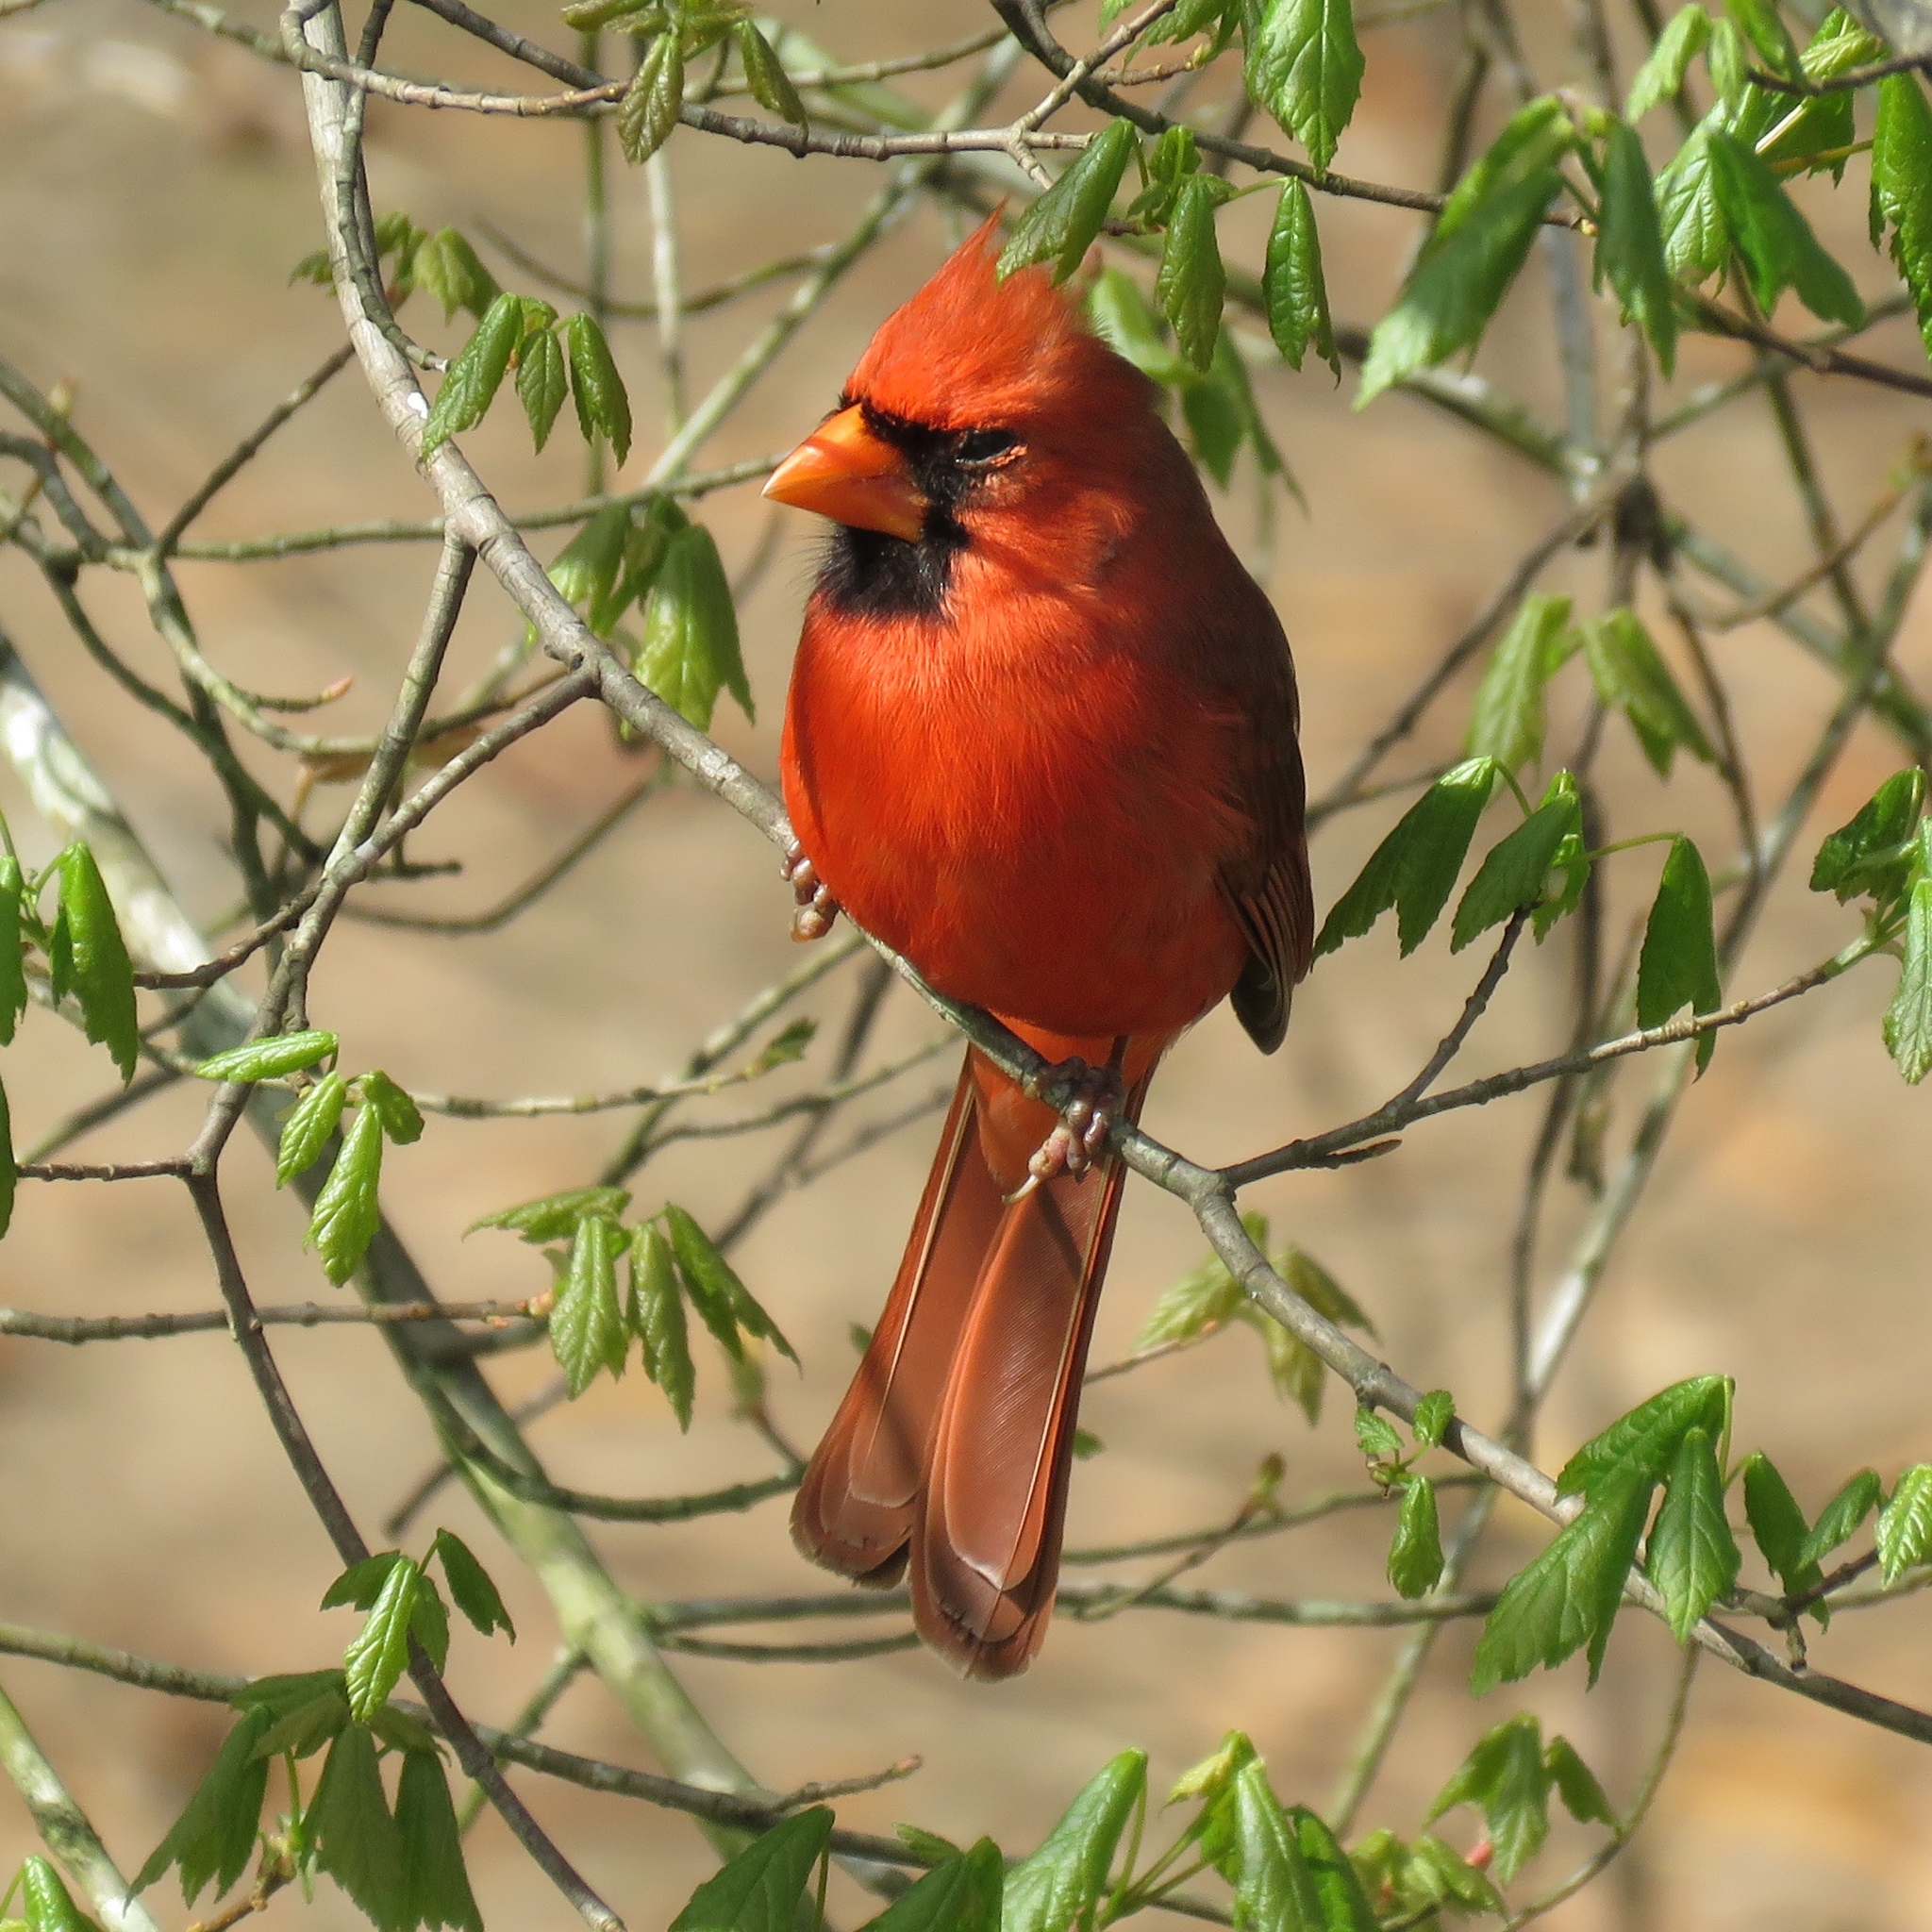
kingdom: Animalia
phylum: Chordata
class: Aves
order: Passeriformes
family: Cardinalidae
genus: Cardinalis
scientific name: Cardinalis cardinalis
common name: Northern cardinal
